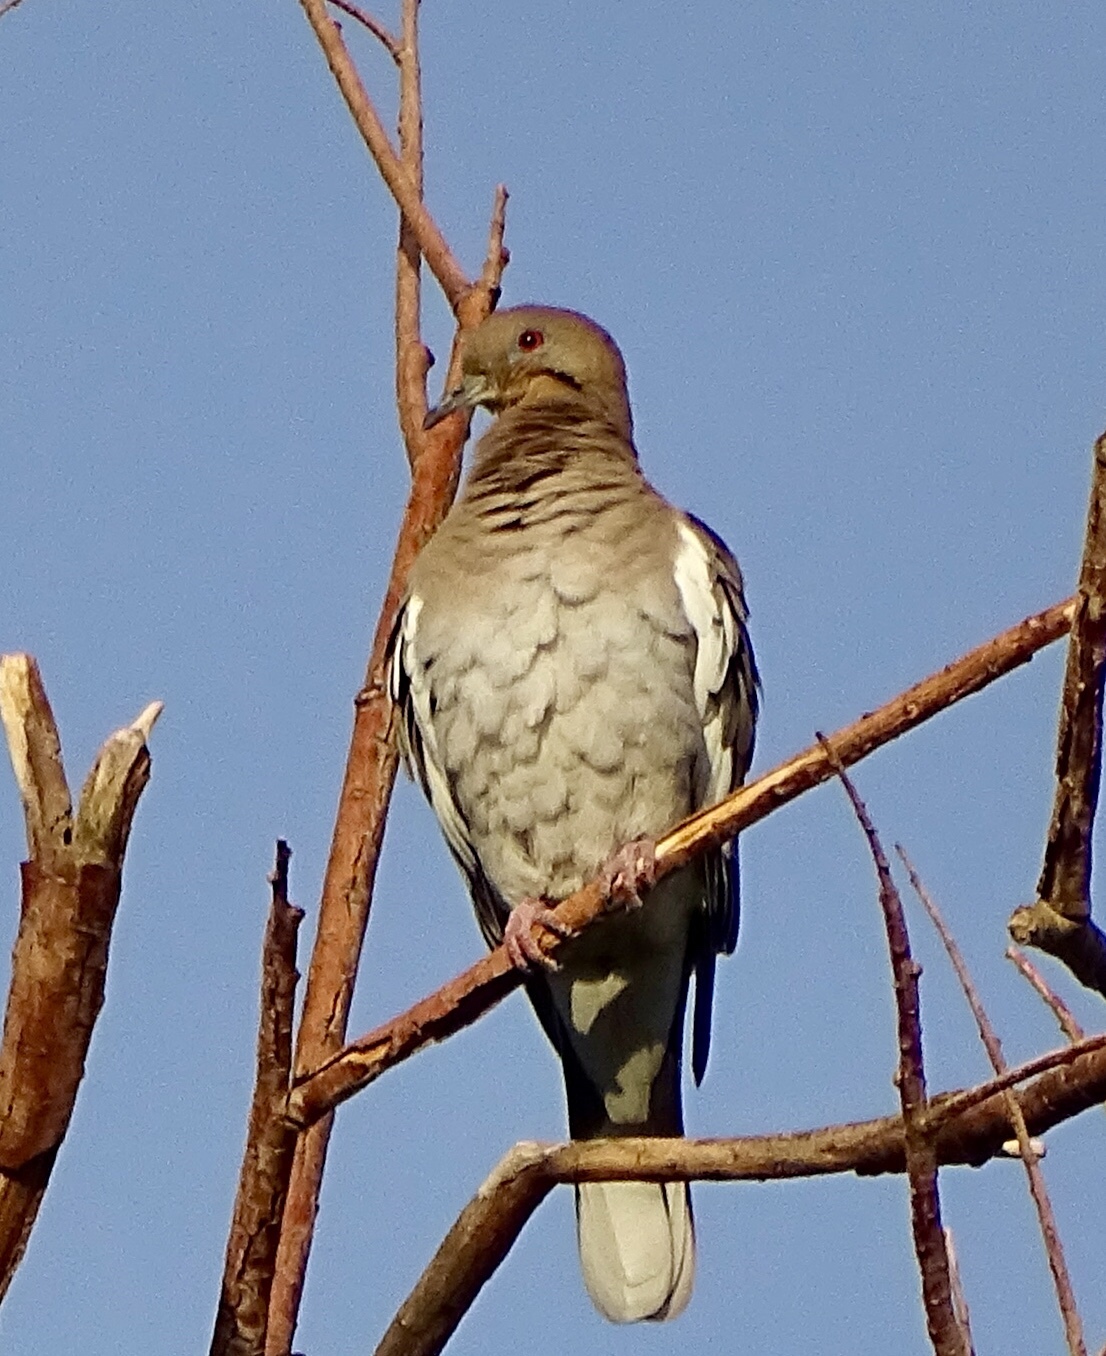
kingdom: Animalia
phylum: Chordata
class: Aves
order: Columbiformes
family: Columbidae
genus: Zenaida
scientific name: Zenaida asiatica
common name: White-winged dove
